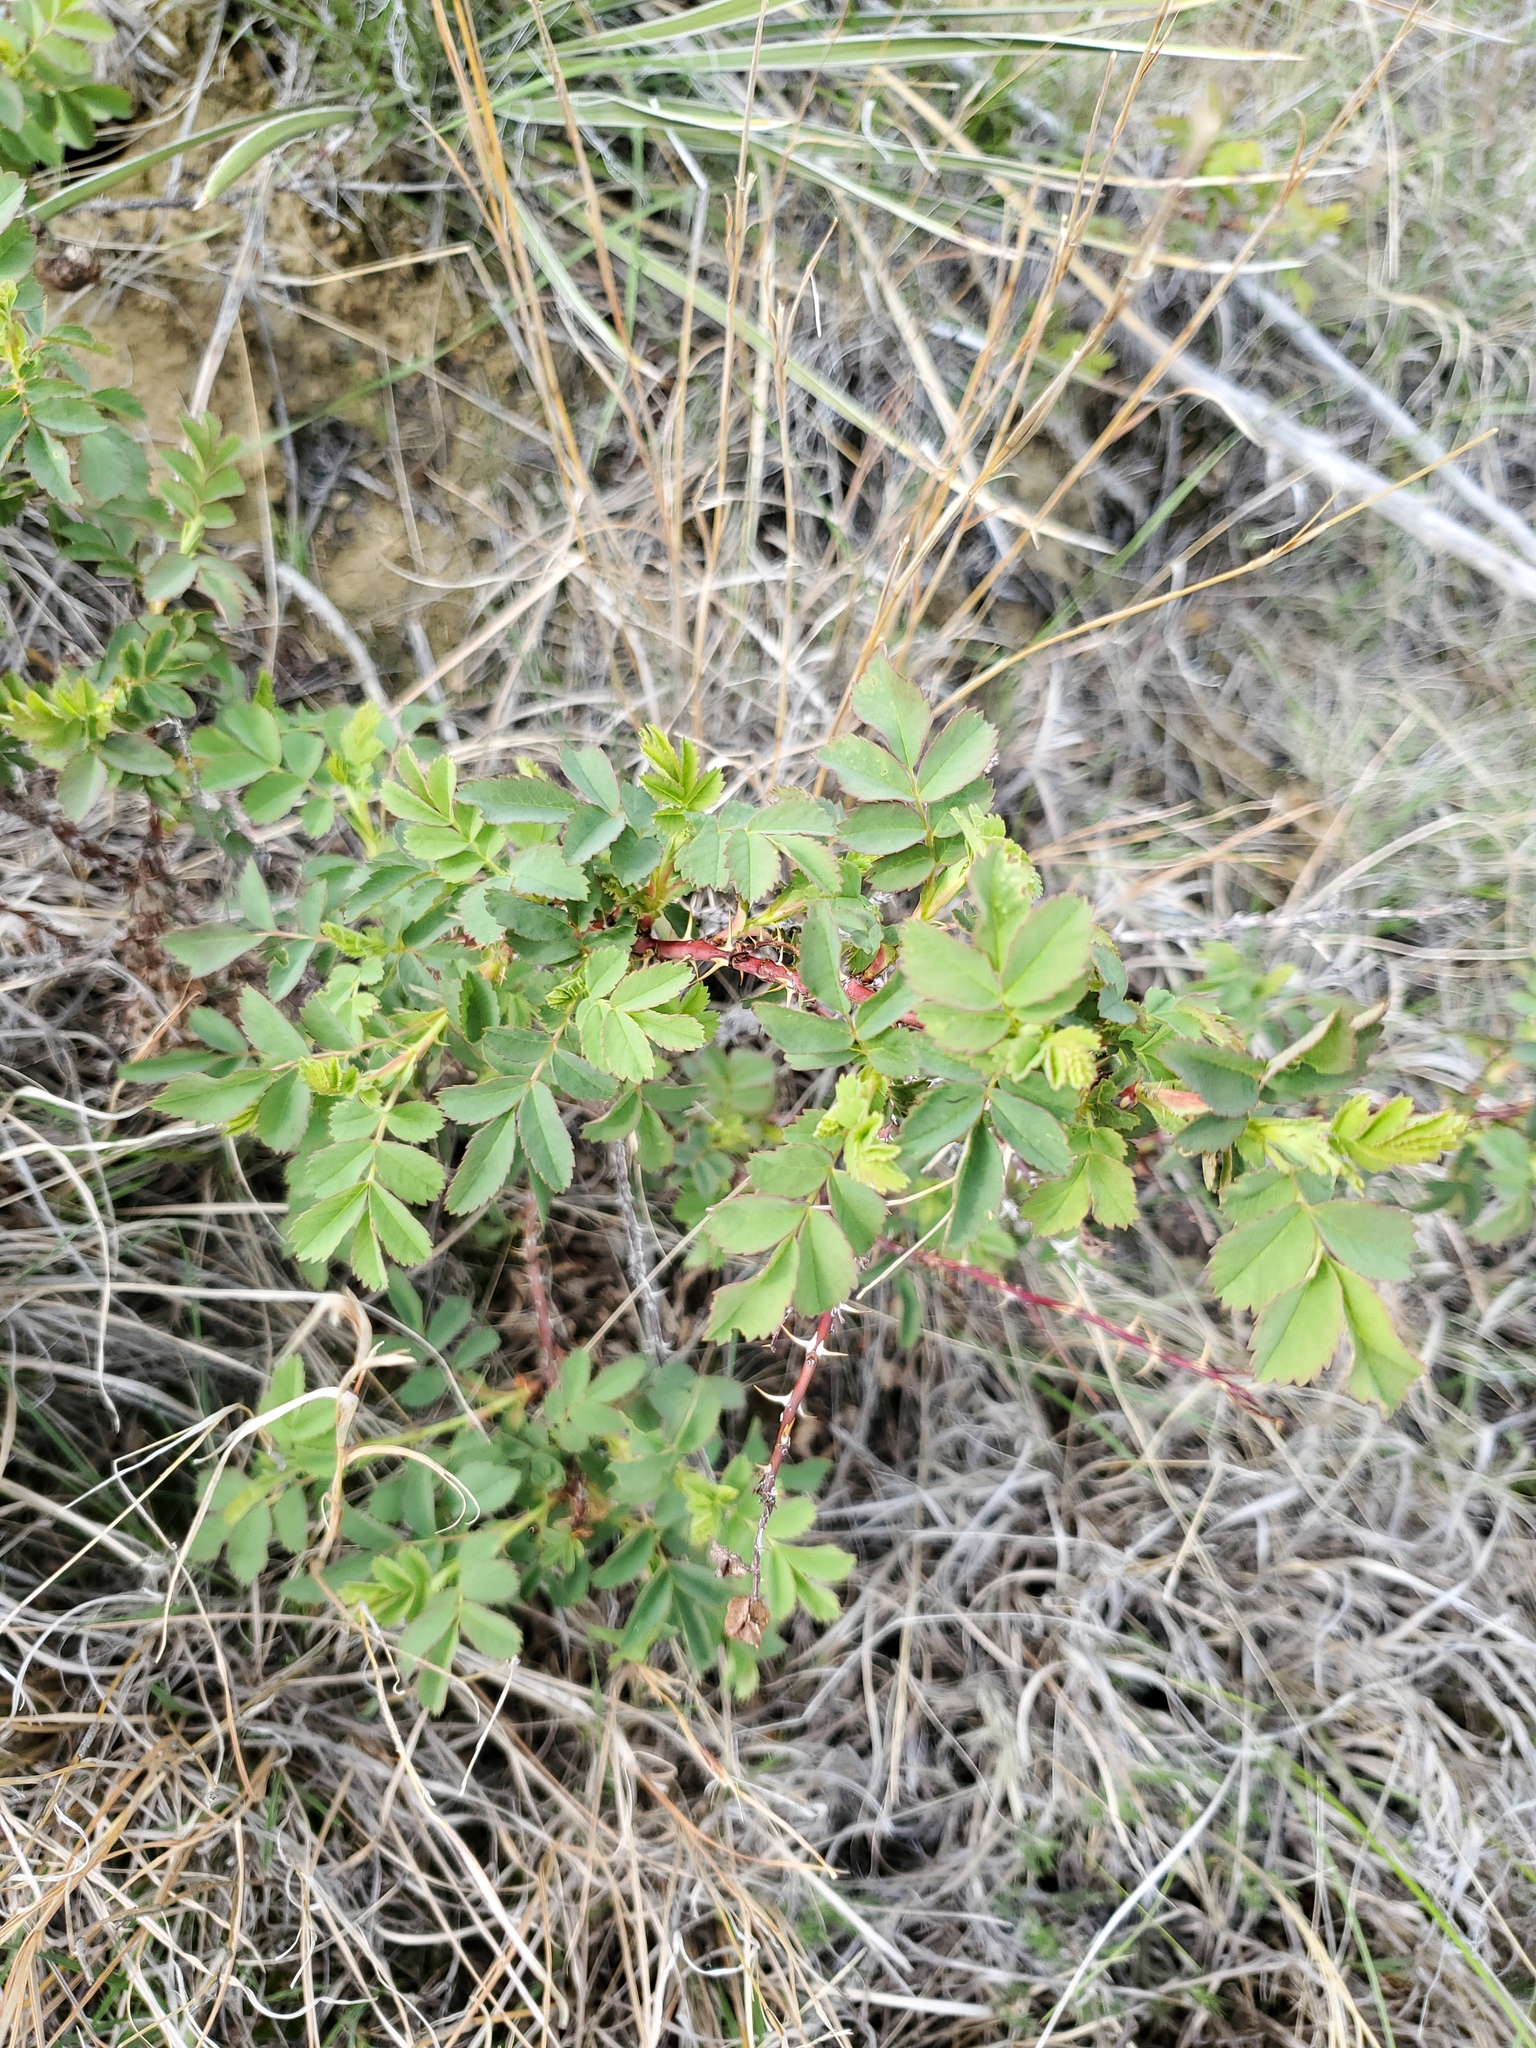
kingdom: Plantae
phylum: Tracheophyta
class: Magnoliopsida
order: Rosales
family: Rosaceae
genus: Rosa
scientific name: Rosa arkansana
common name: Prairie rose
